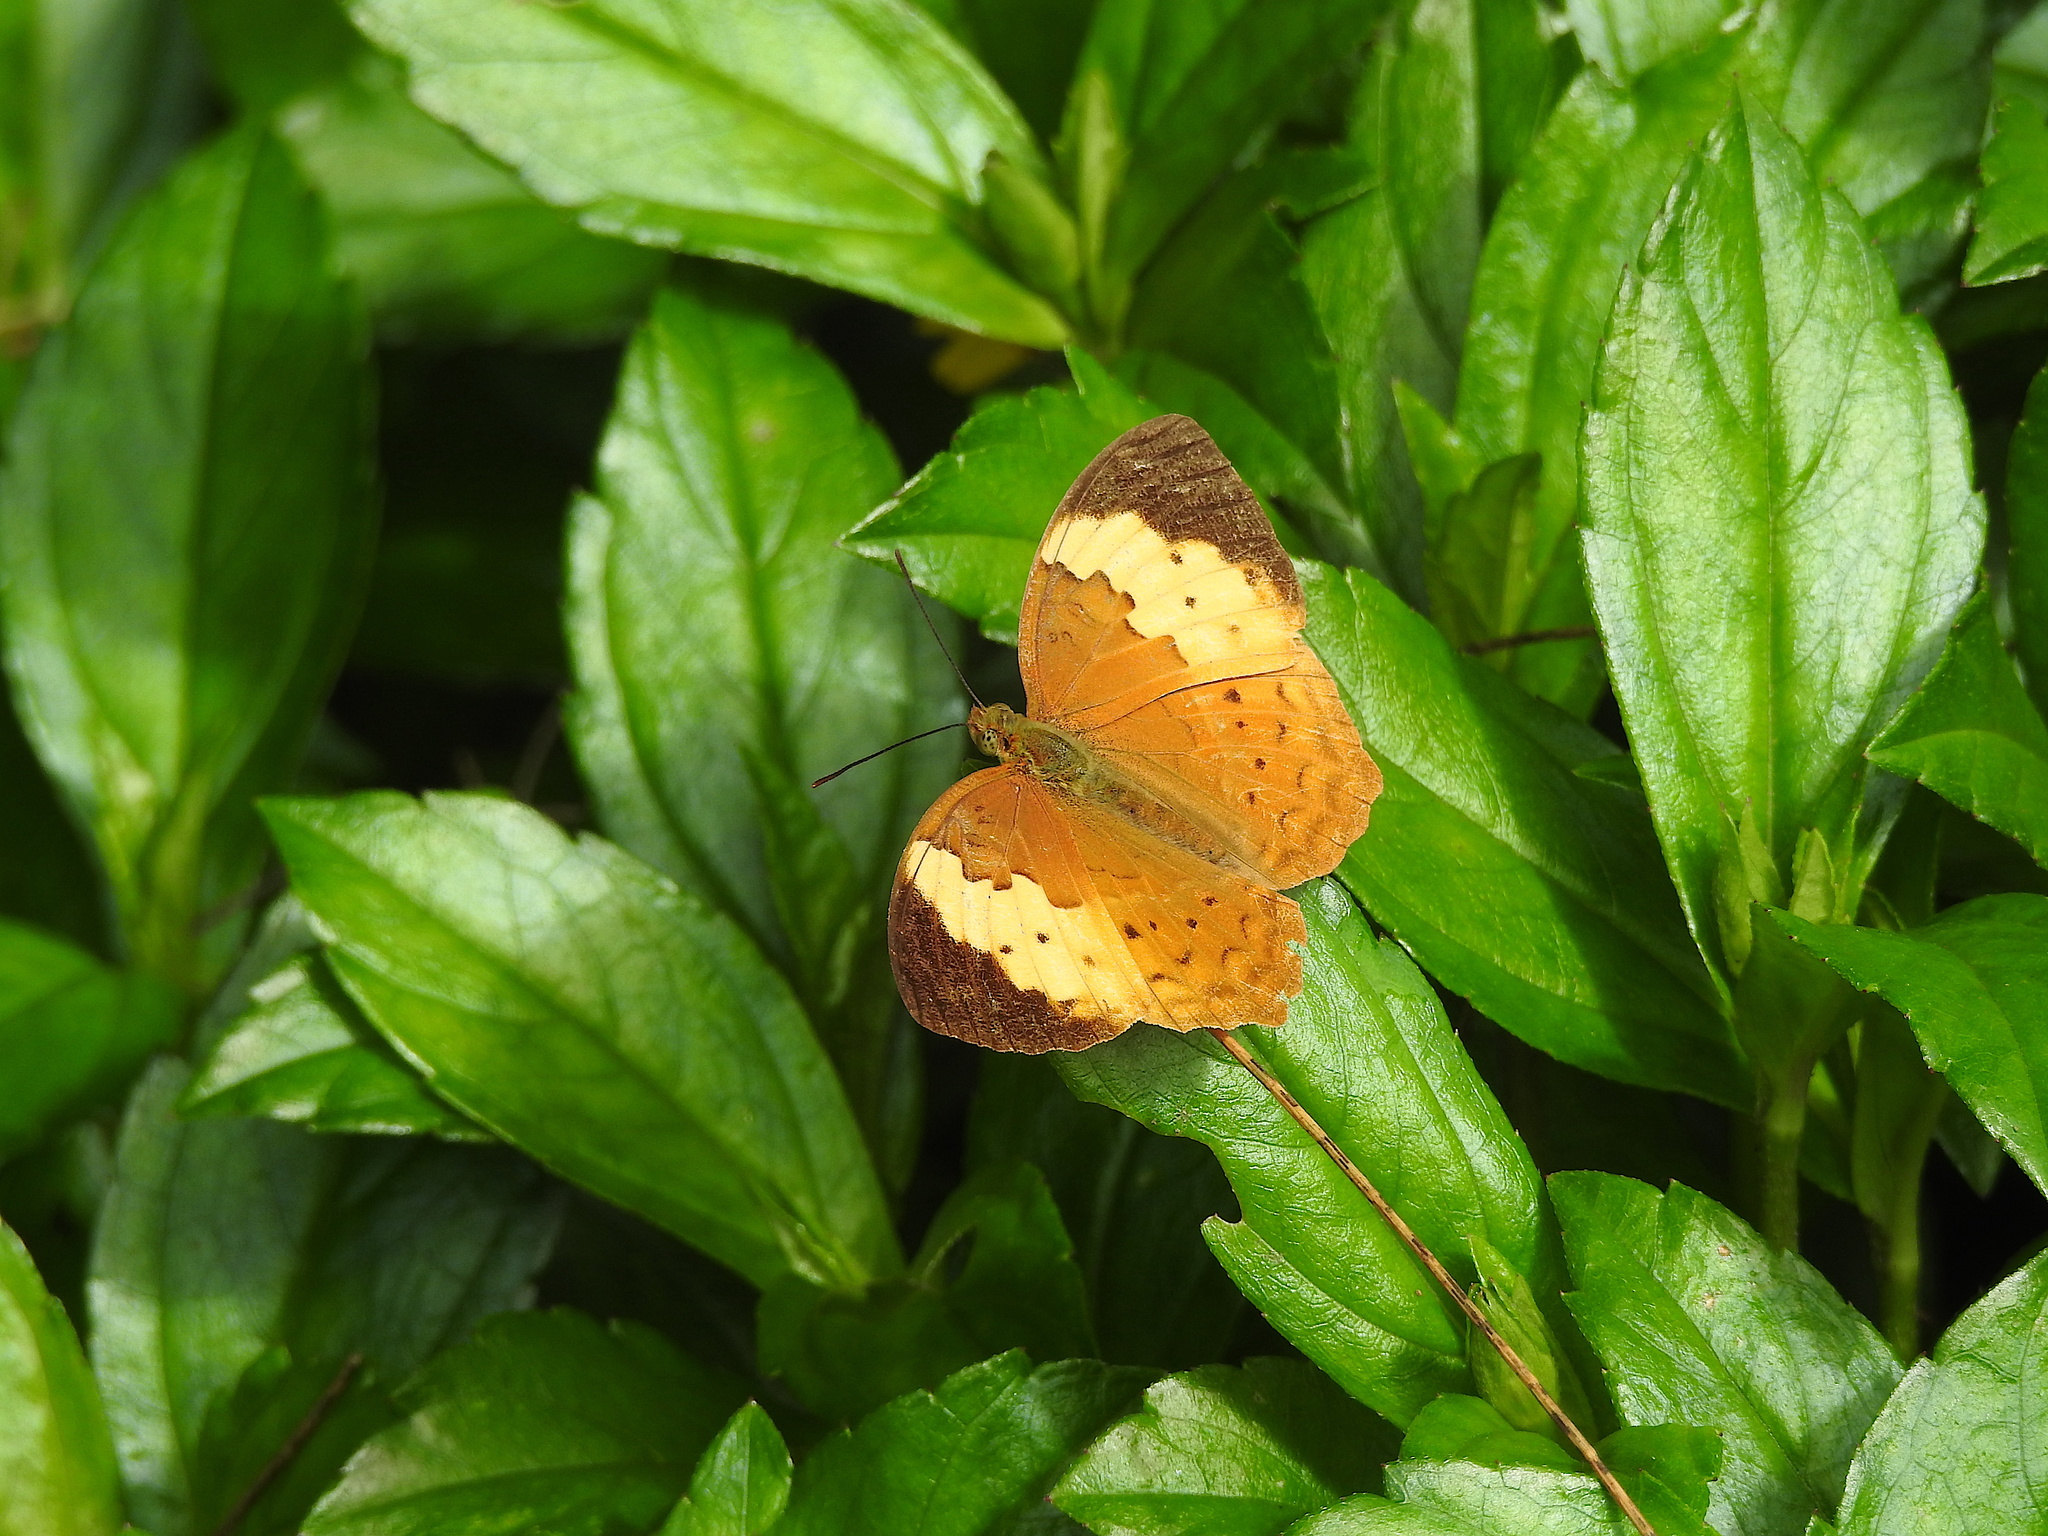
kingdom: Animalia
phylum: Arthropoda
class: Insecta
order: Lepidoptera
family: Nymphalidae
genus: Cupha
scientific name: Cupha erymanthis
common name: Rustic
